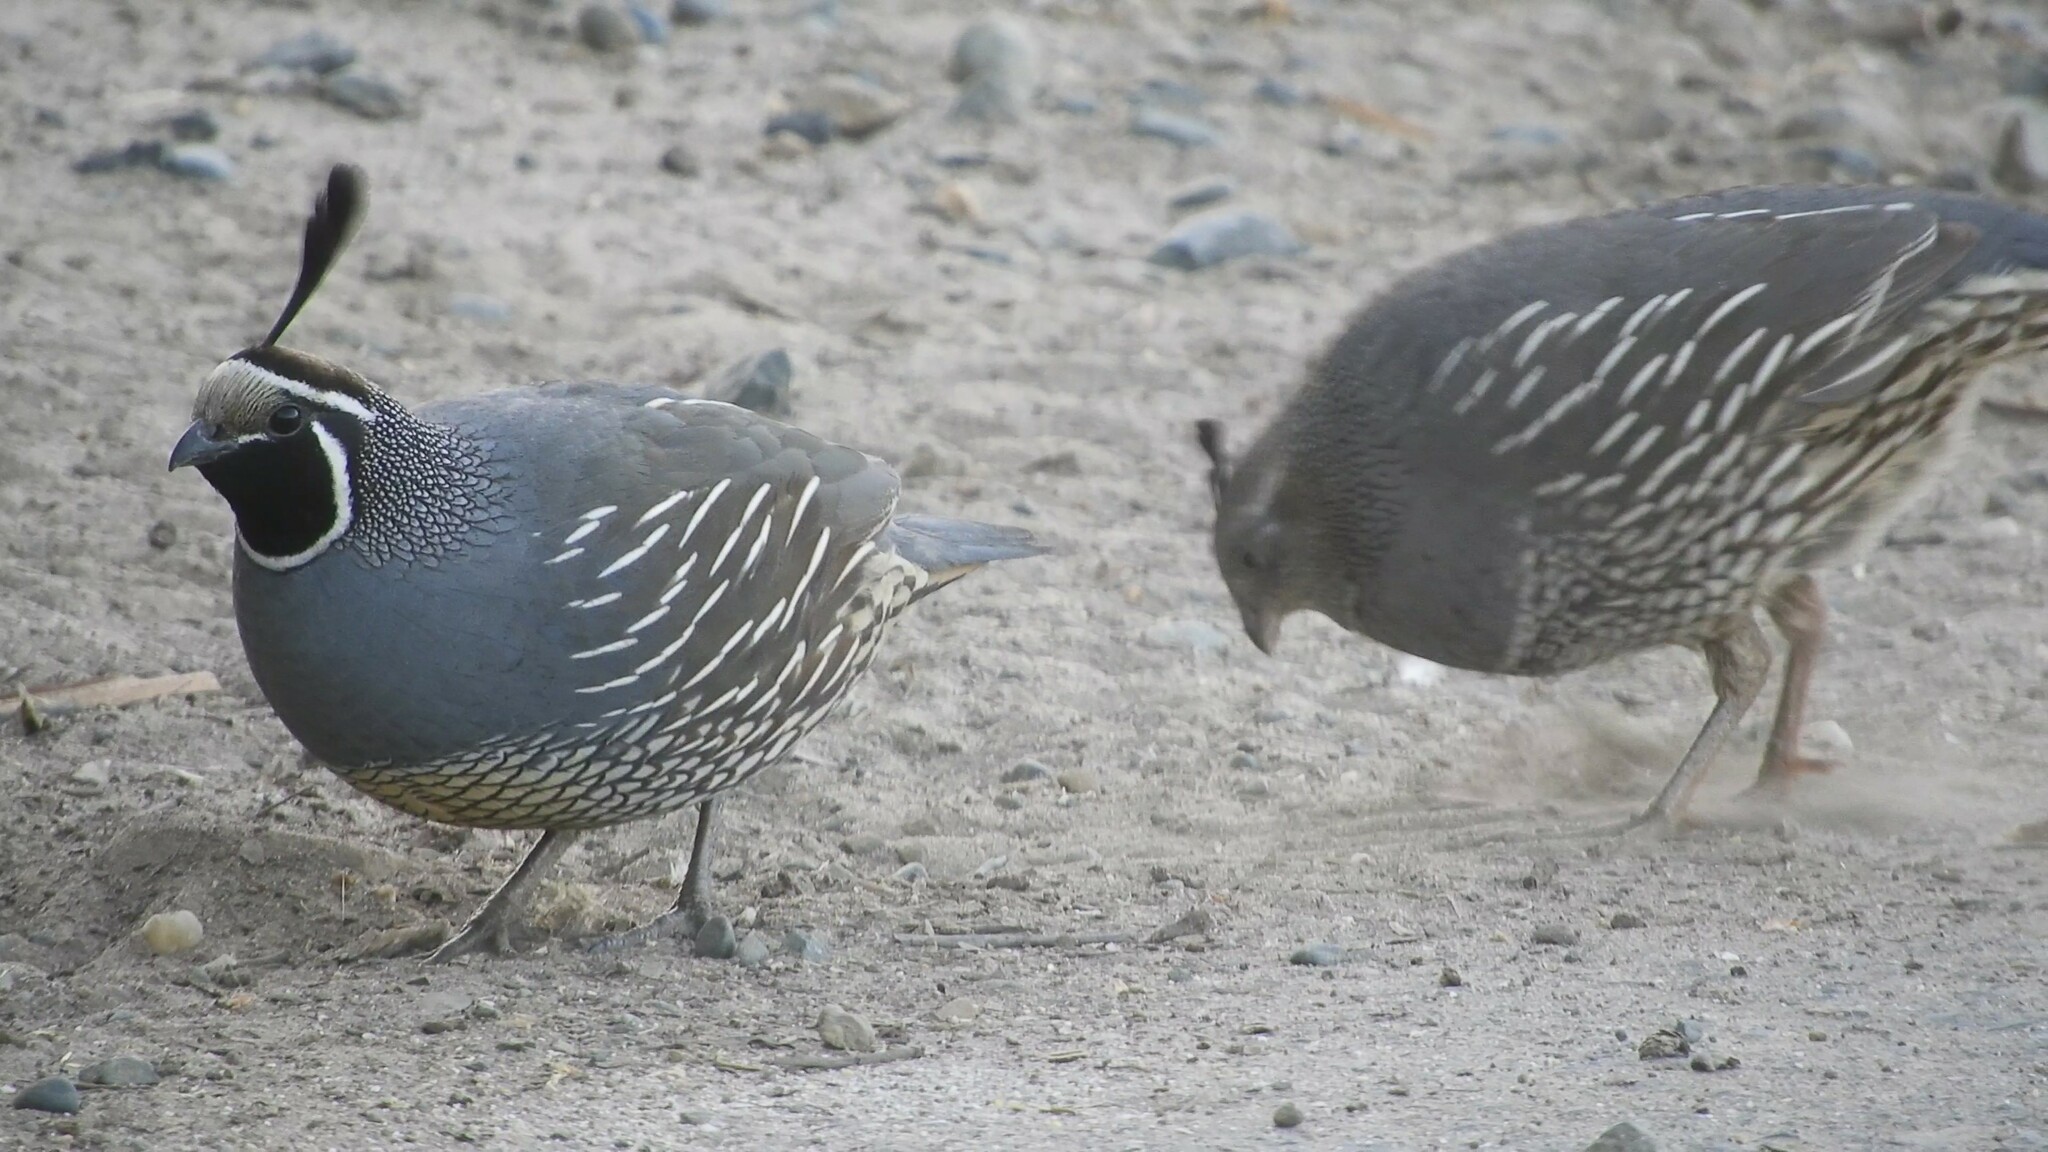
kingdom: Animalia
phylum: Chordata
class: Aves
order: Galliformes
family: Odontophoridae
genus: Callipepla
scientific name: Callipepla californica
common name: California quail
